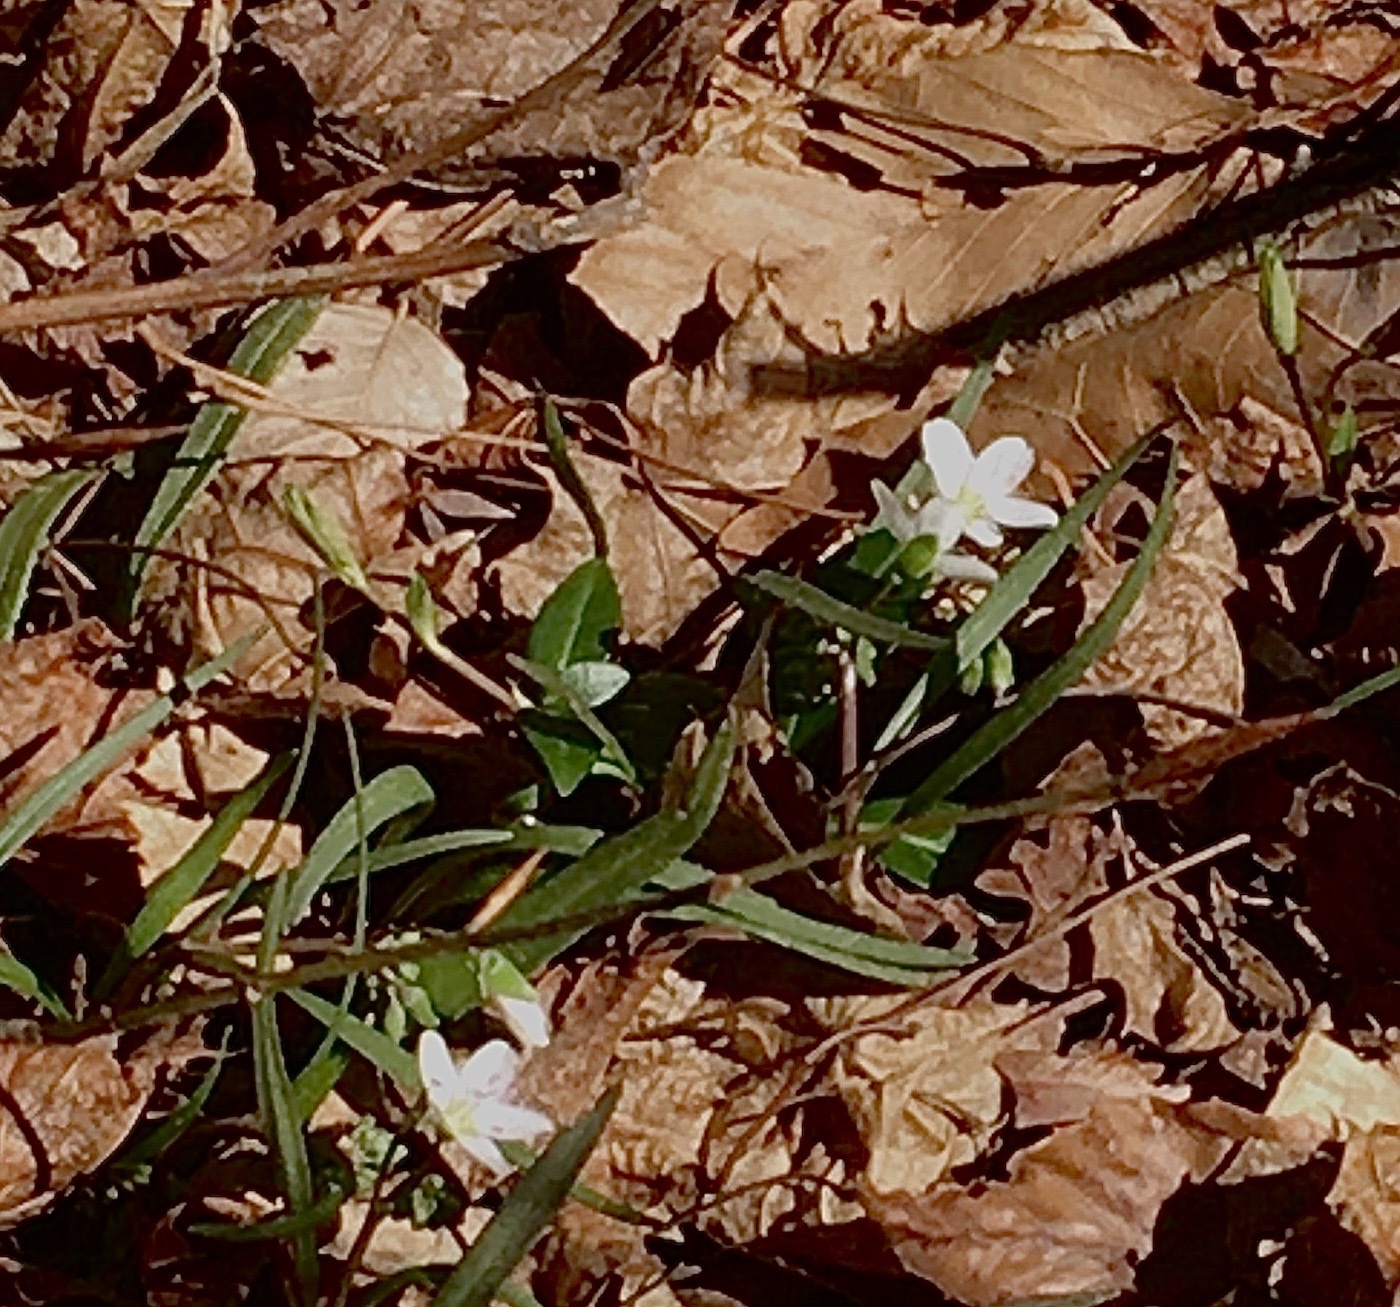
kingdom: Plantae
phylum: Tracheophyta
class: Magnoliopsida
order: Caryophyllales
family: Montiaceae
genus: Claytonia
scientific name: Claytonia virginica
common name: Virginia springbeauty
